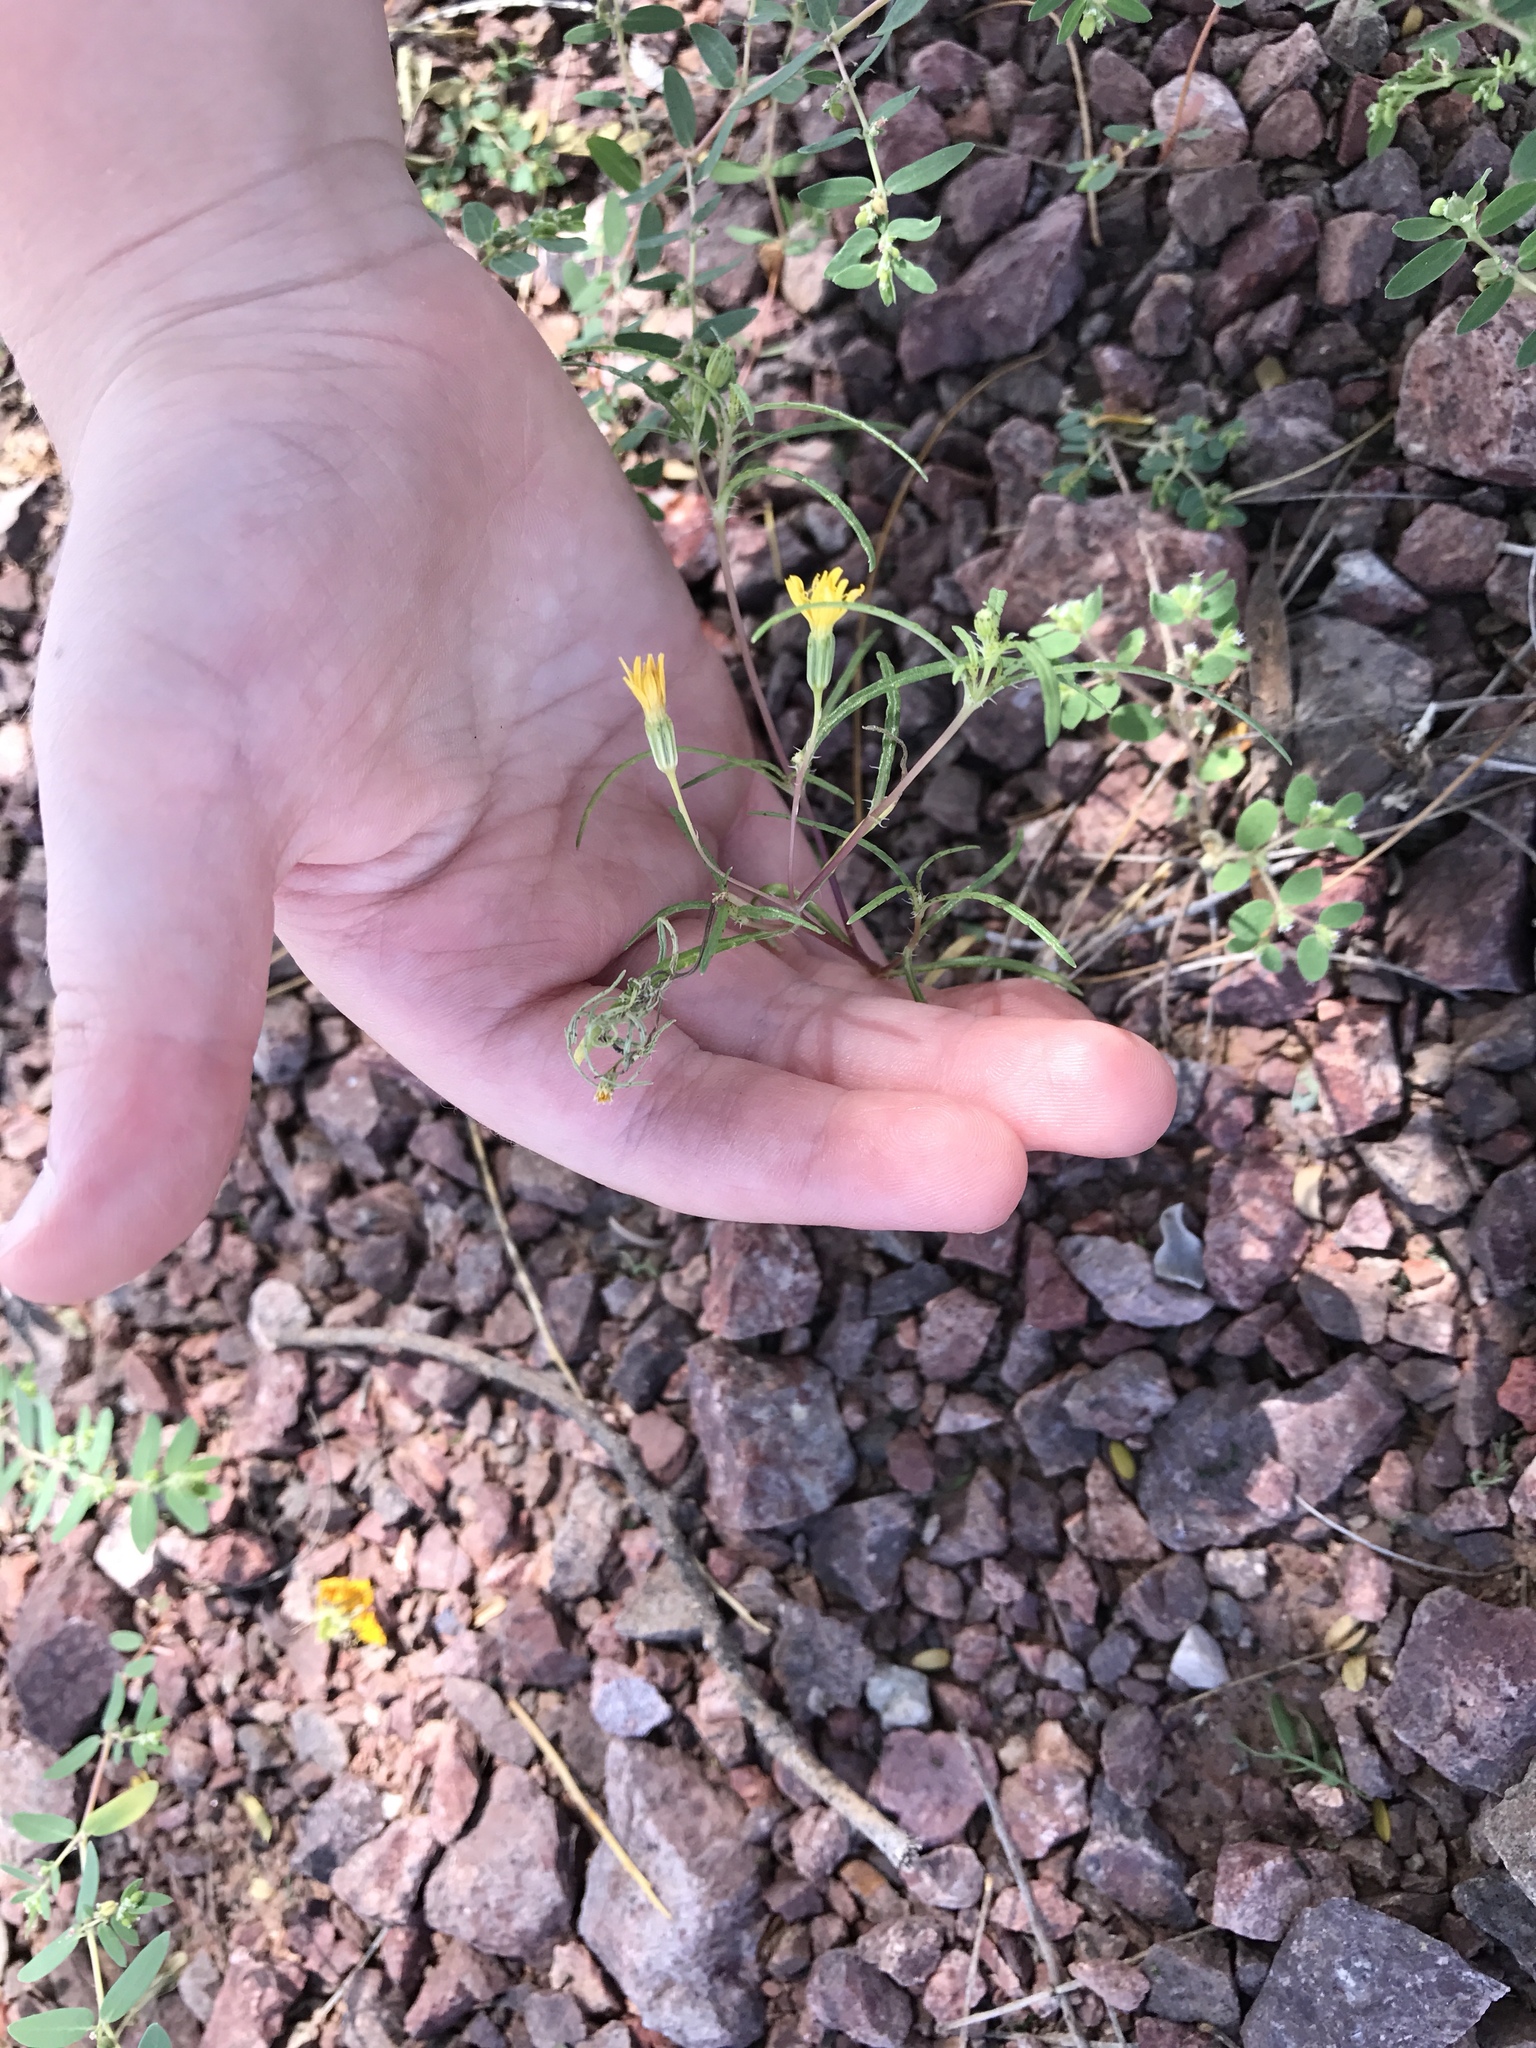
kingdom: Plantae
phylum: Tracheophyta
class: Magnoliopsida
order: Asterales
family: Asteraceae
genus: Pectis
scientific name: Pectis papposa
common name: Many-bristle chinchweed
